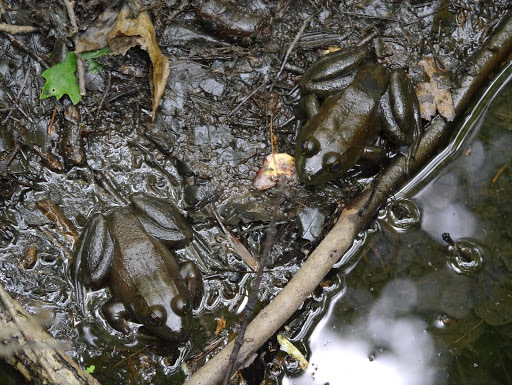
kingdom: Animalia
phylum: Chordata
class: Amphibia
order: Anura
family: Ranidae
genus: Lithobates
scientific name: Lithobates catesbeianus
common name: American bullfrog
